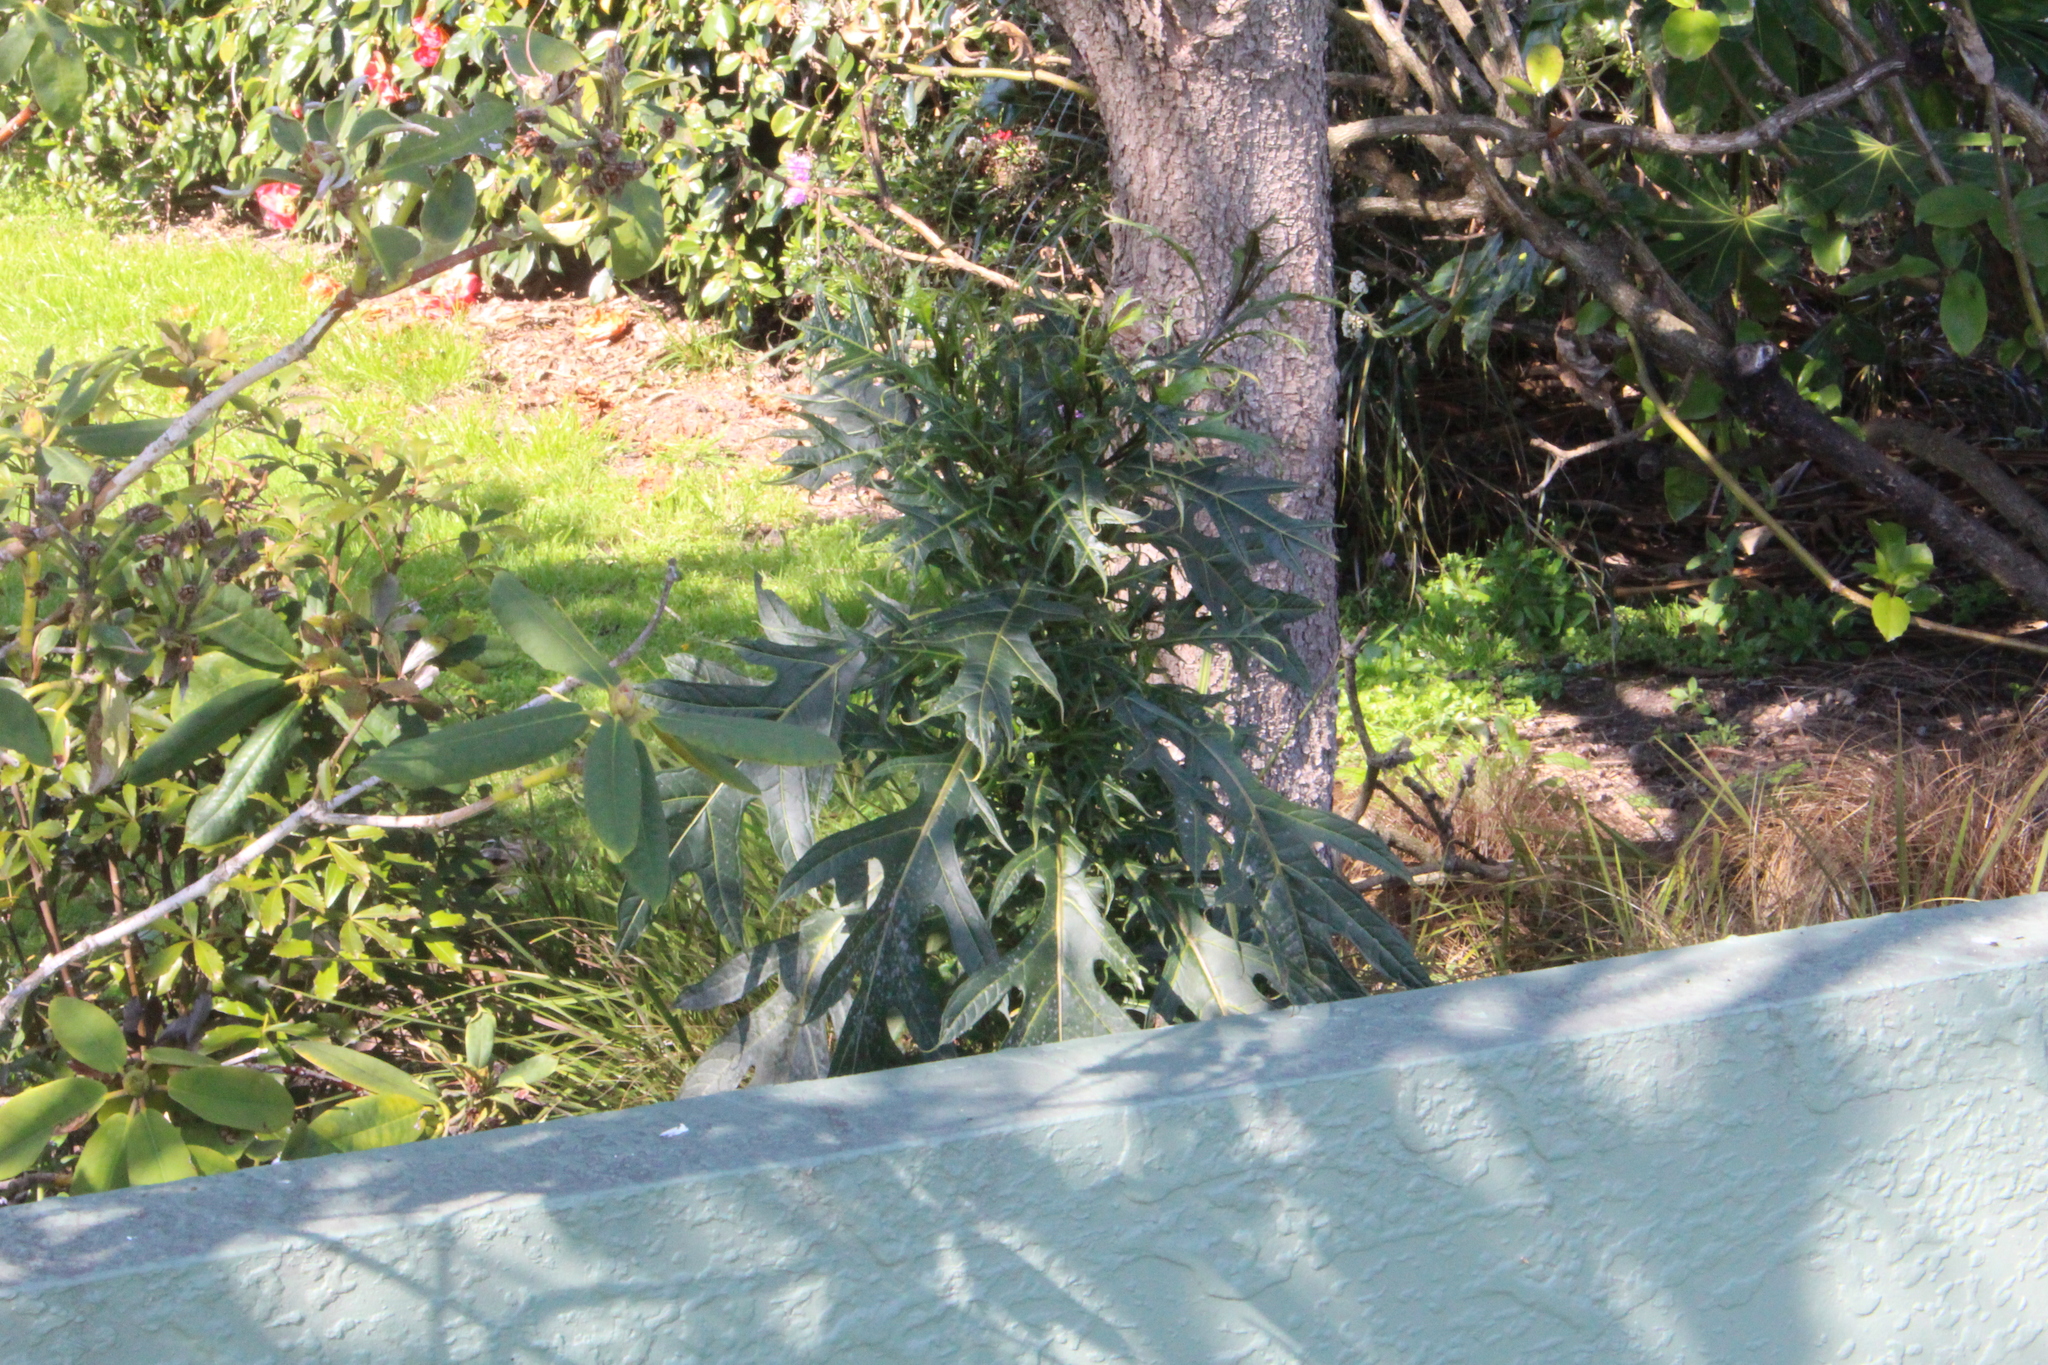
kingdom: Plantae
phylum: Tracheophyta
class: Magnoliopsida
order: Solanales
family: Solanaceae
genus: Solanum
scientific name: Solanum
